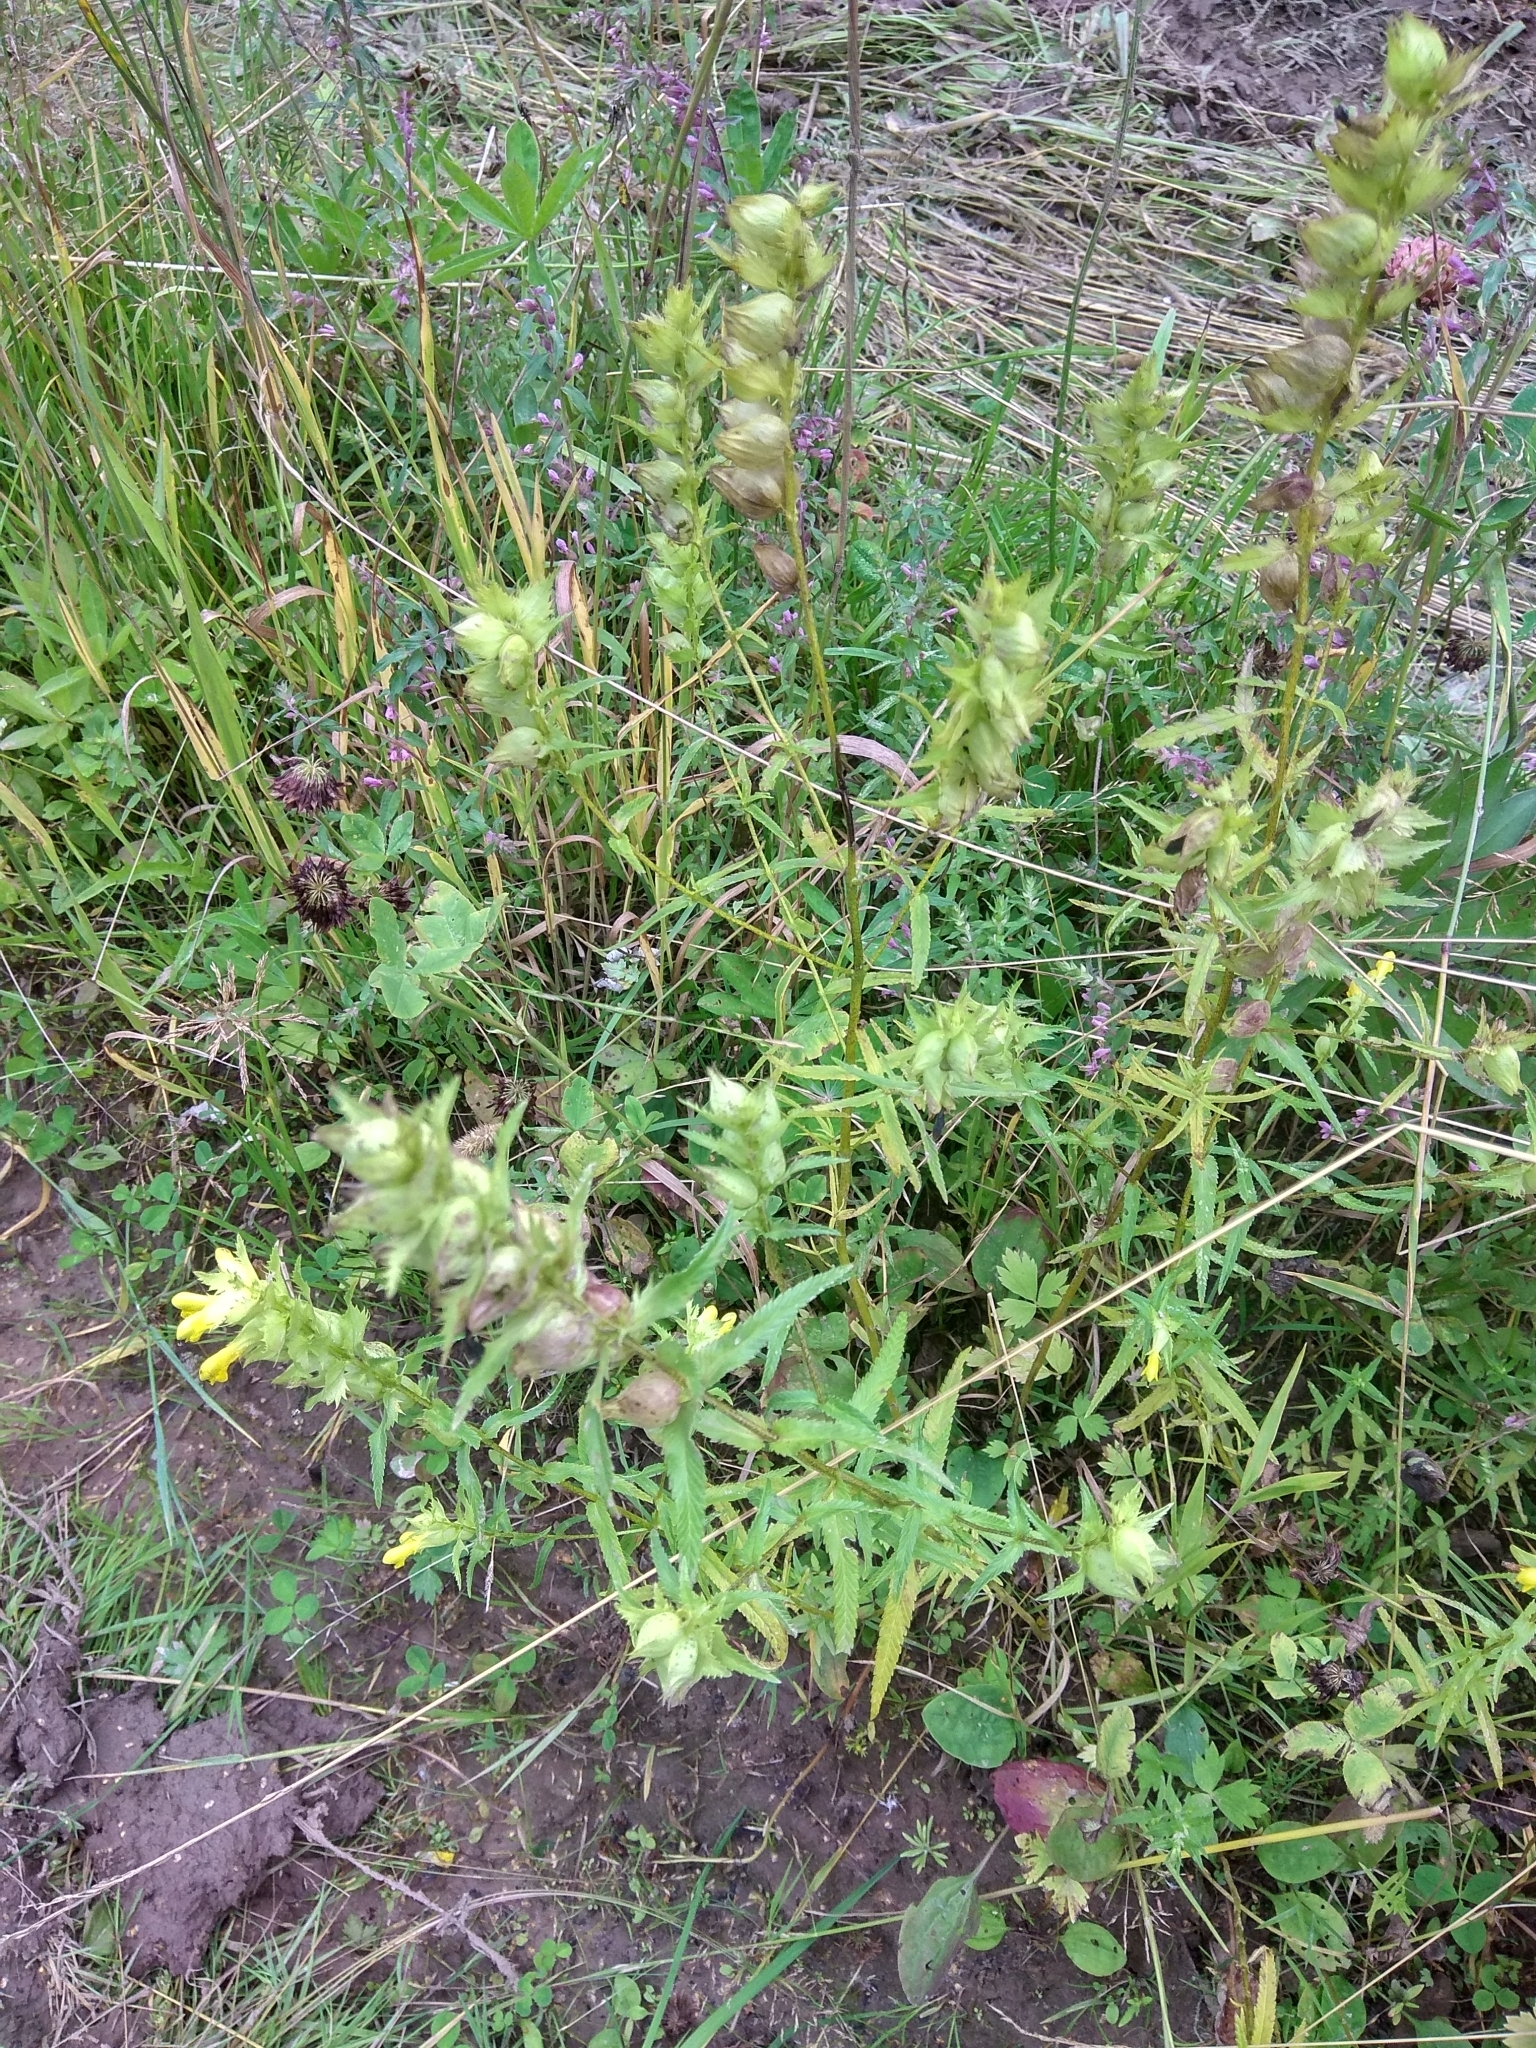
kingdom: Plantae
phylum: Tracheophyta
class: Magnoliopsida
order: Lamiales
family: Orobanchaceae
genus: Rhinanthus
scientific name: Rhinanthus serotinus
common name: Late-flowering yellow rattle
